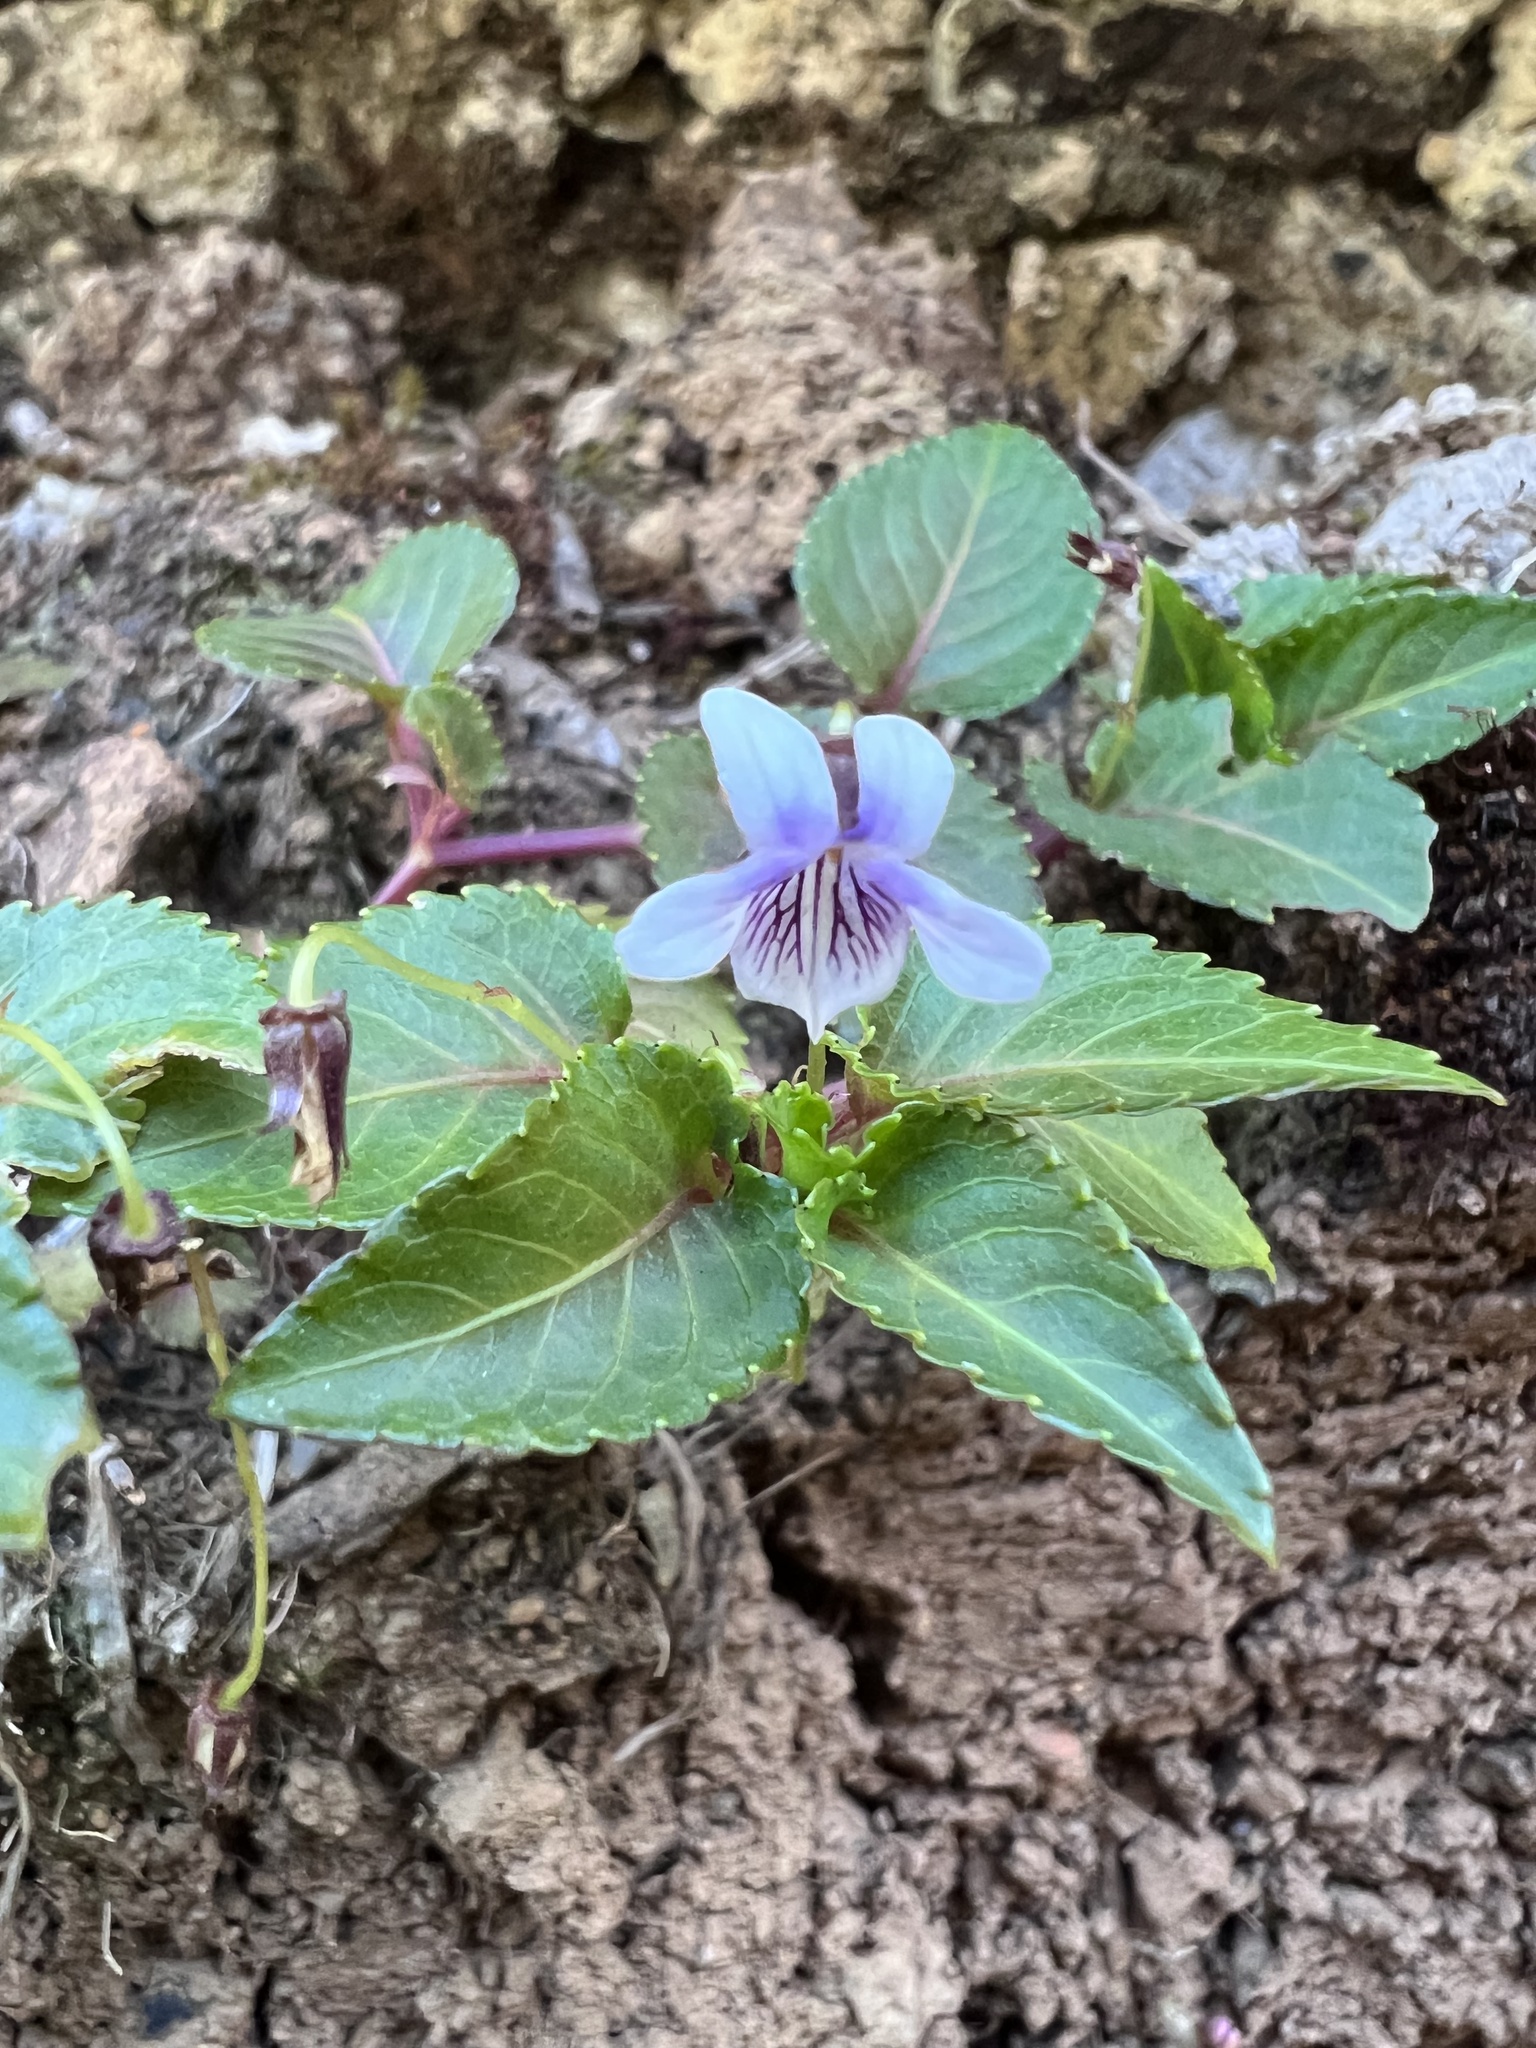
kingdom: Plantae
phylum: Tracheophyta
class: Magnoliopsida
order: Malpighiales
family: Violaceae
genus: Viola
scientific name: Viola scandens
